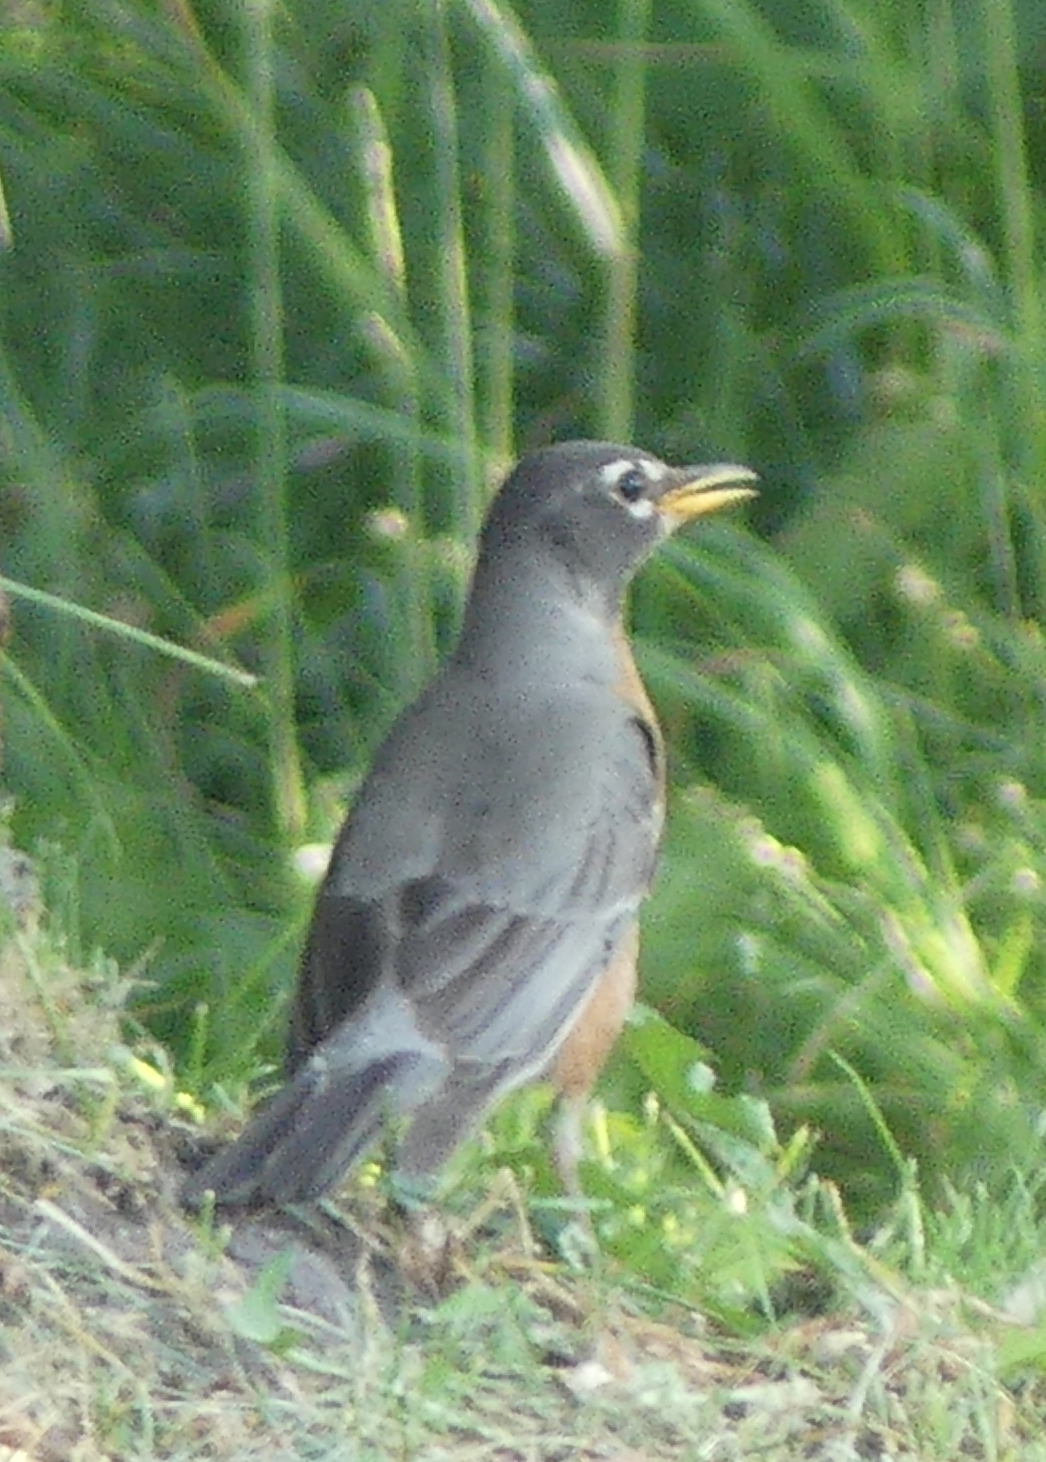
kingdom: Animalia
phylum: Chordata
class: Aves
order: Passeriformes
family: Turdidae
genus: Turdus
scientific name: Turdus migratorius
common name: American robin
